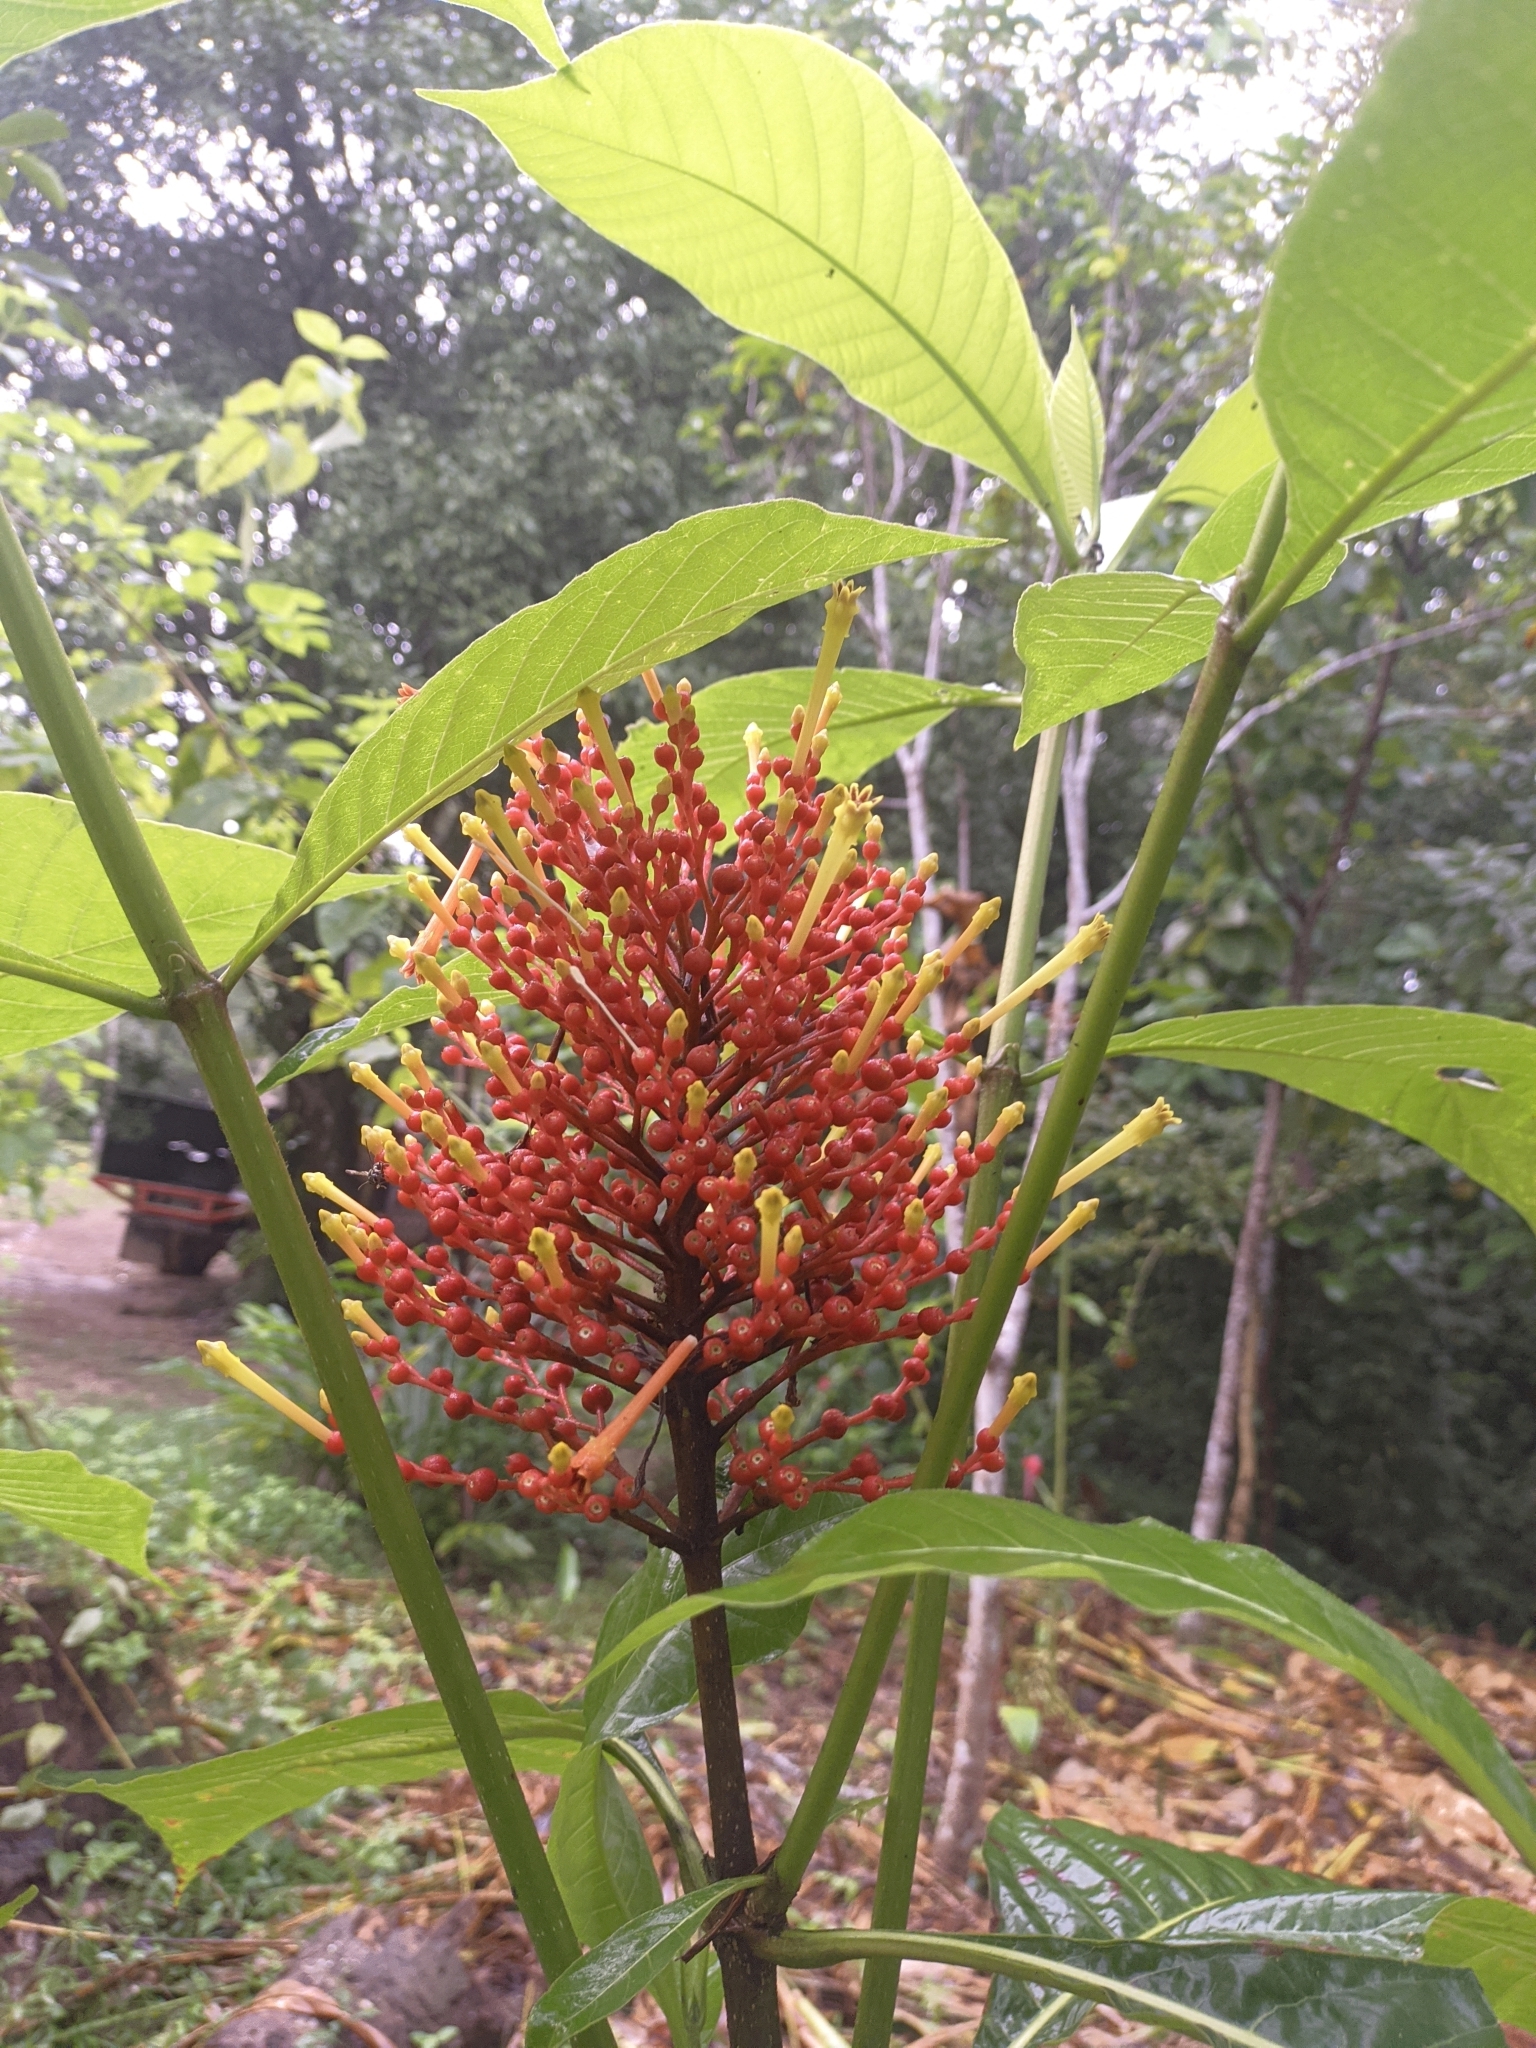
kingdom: Plantae
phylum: Tracheophyta
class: Magnoliopsida
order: Gentianales
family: Rubiaceae
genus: Isertia
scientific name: Isertia haenkeana
